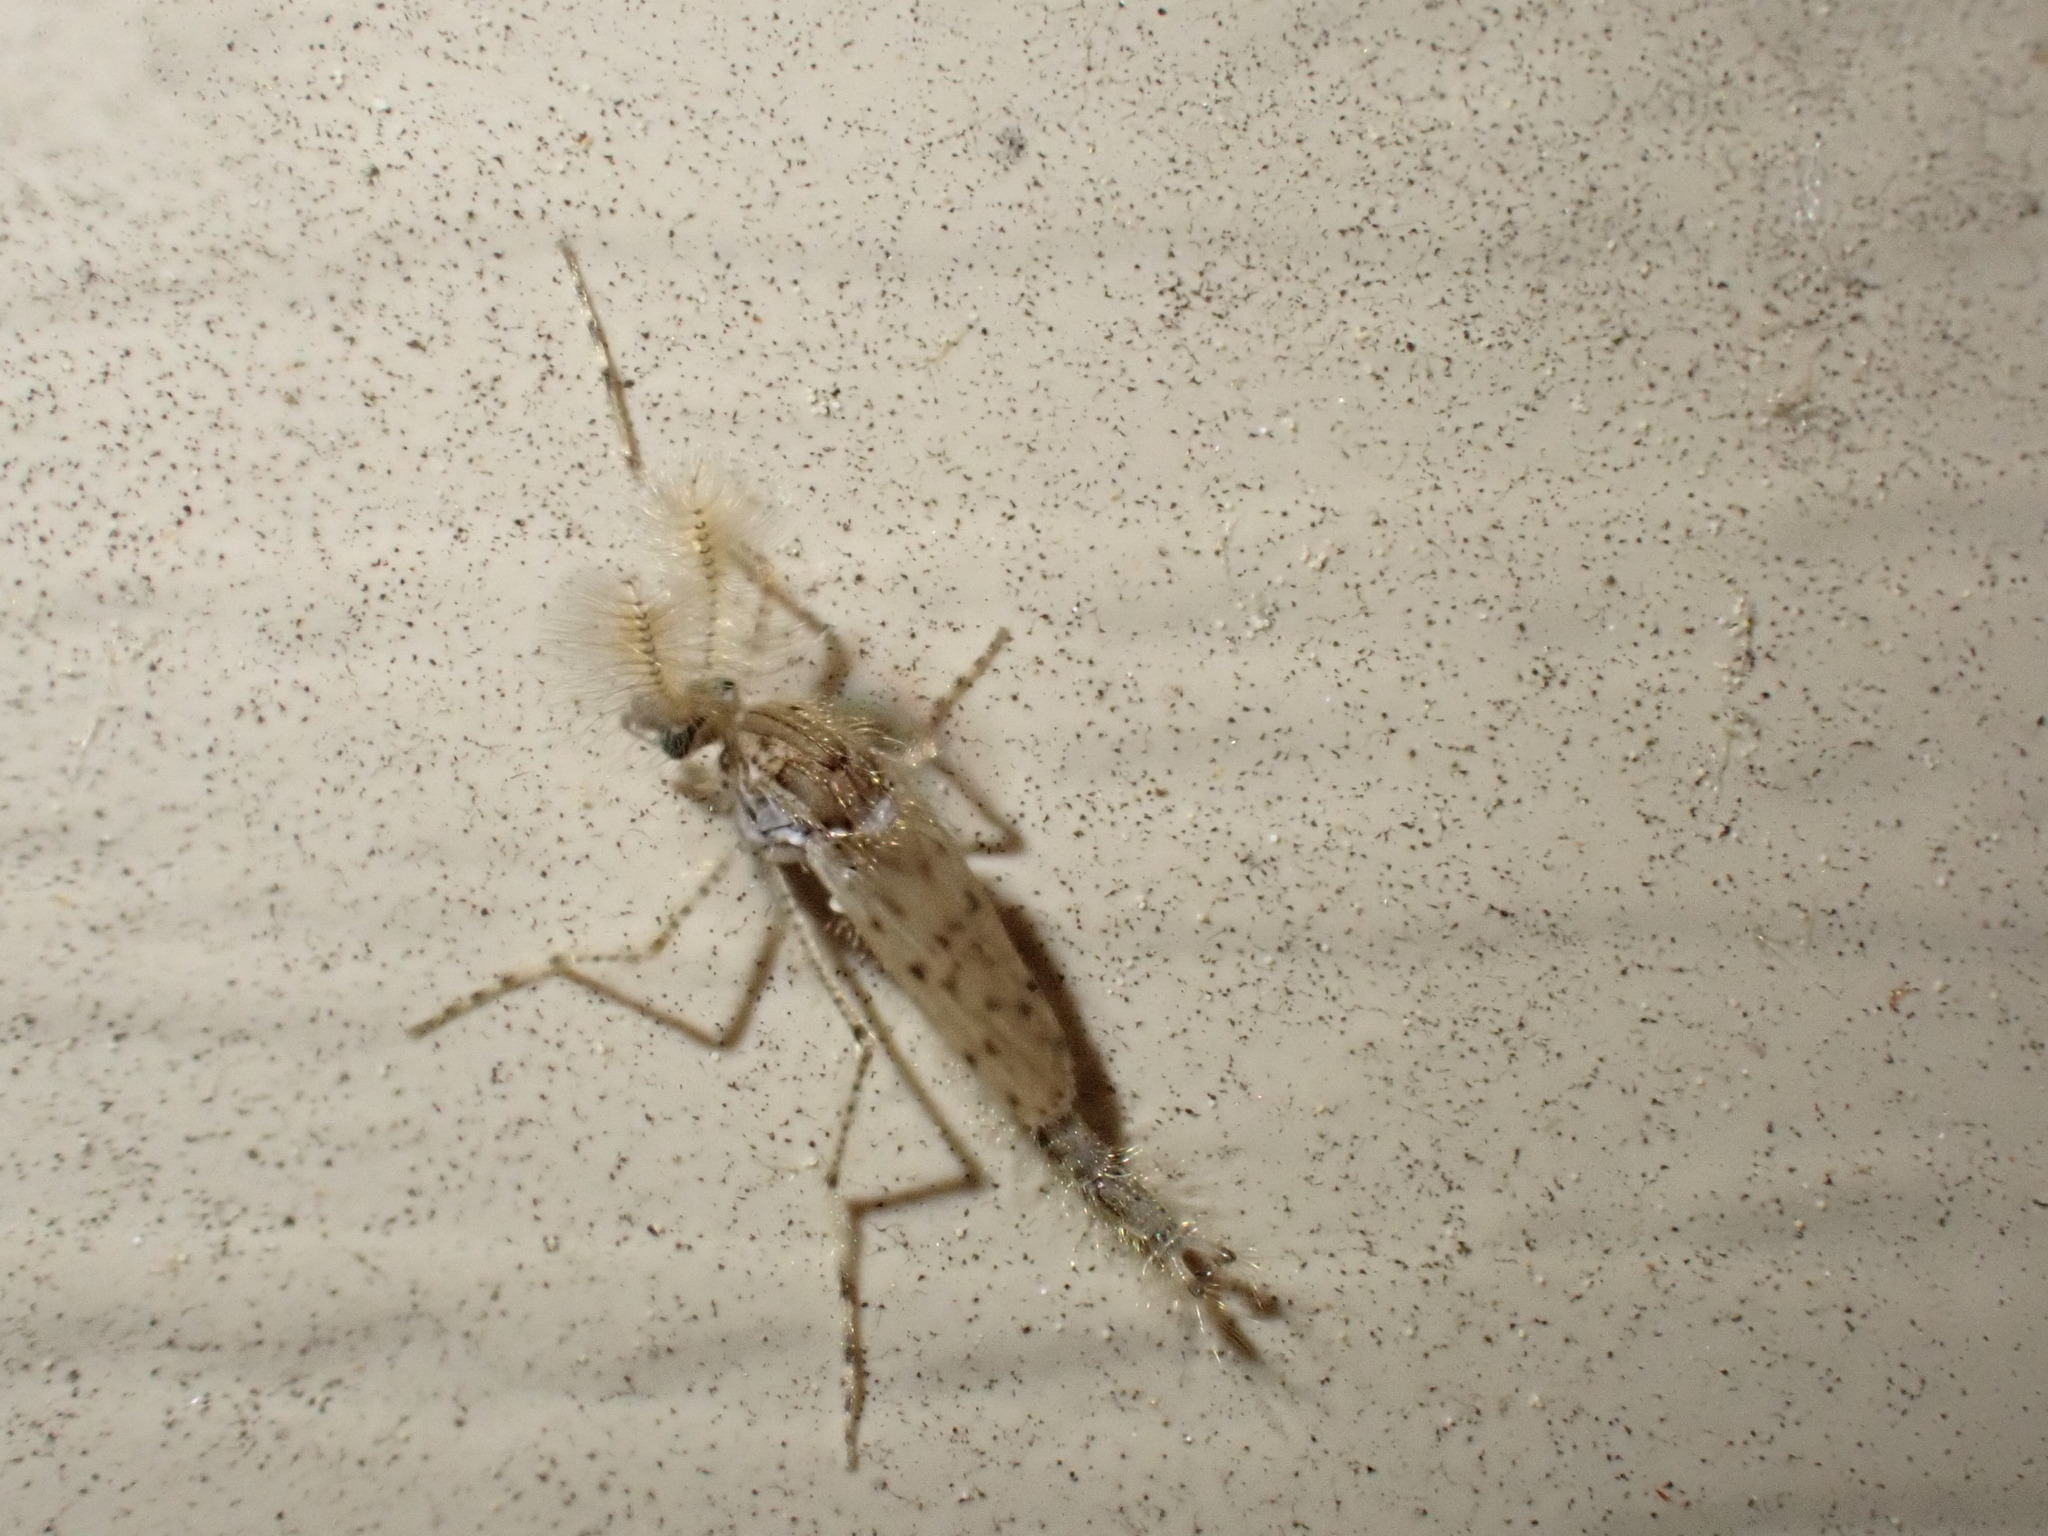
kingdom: Animalia
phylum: Arthropoda
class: Insecta
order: Diptera
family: Chaoboridae
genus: Chaoborus
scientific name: Chaoborus punctipennis
